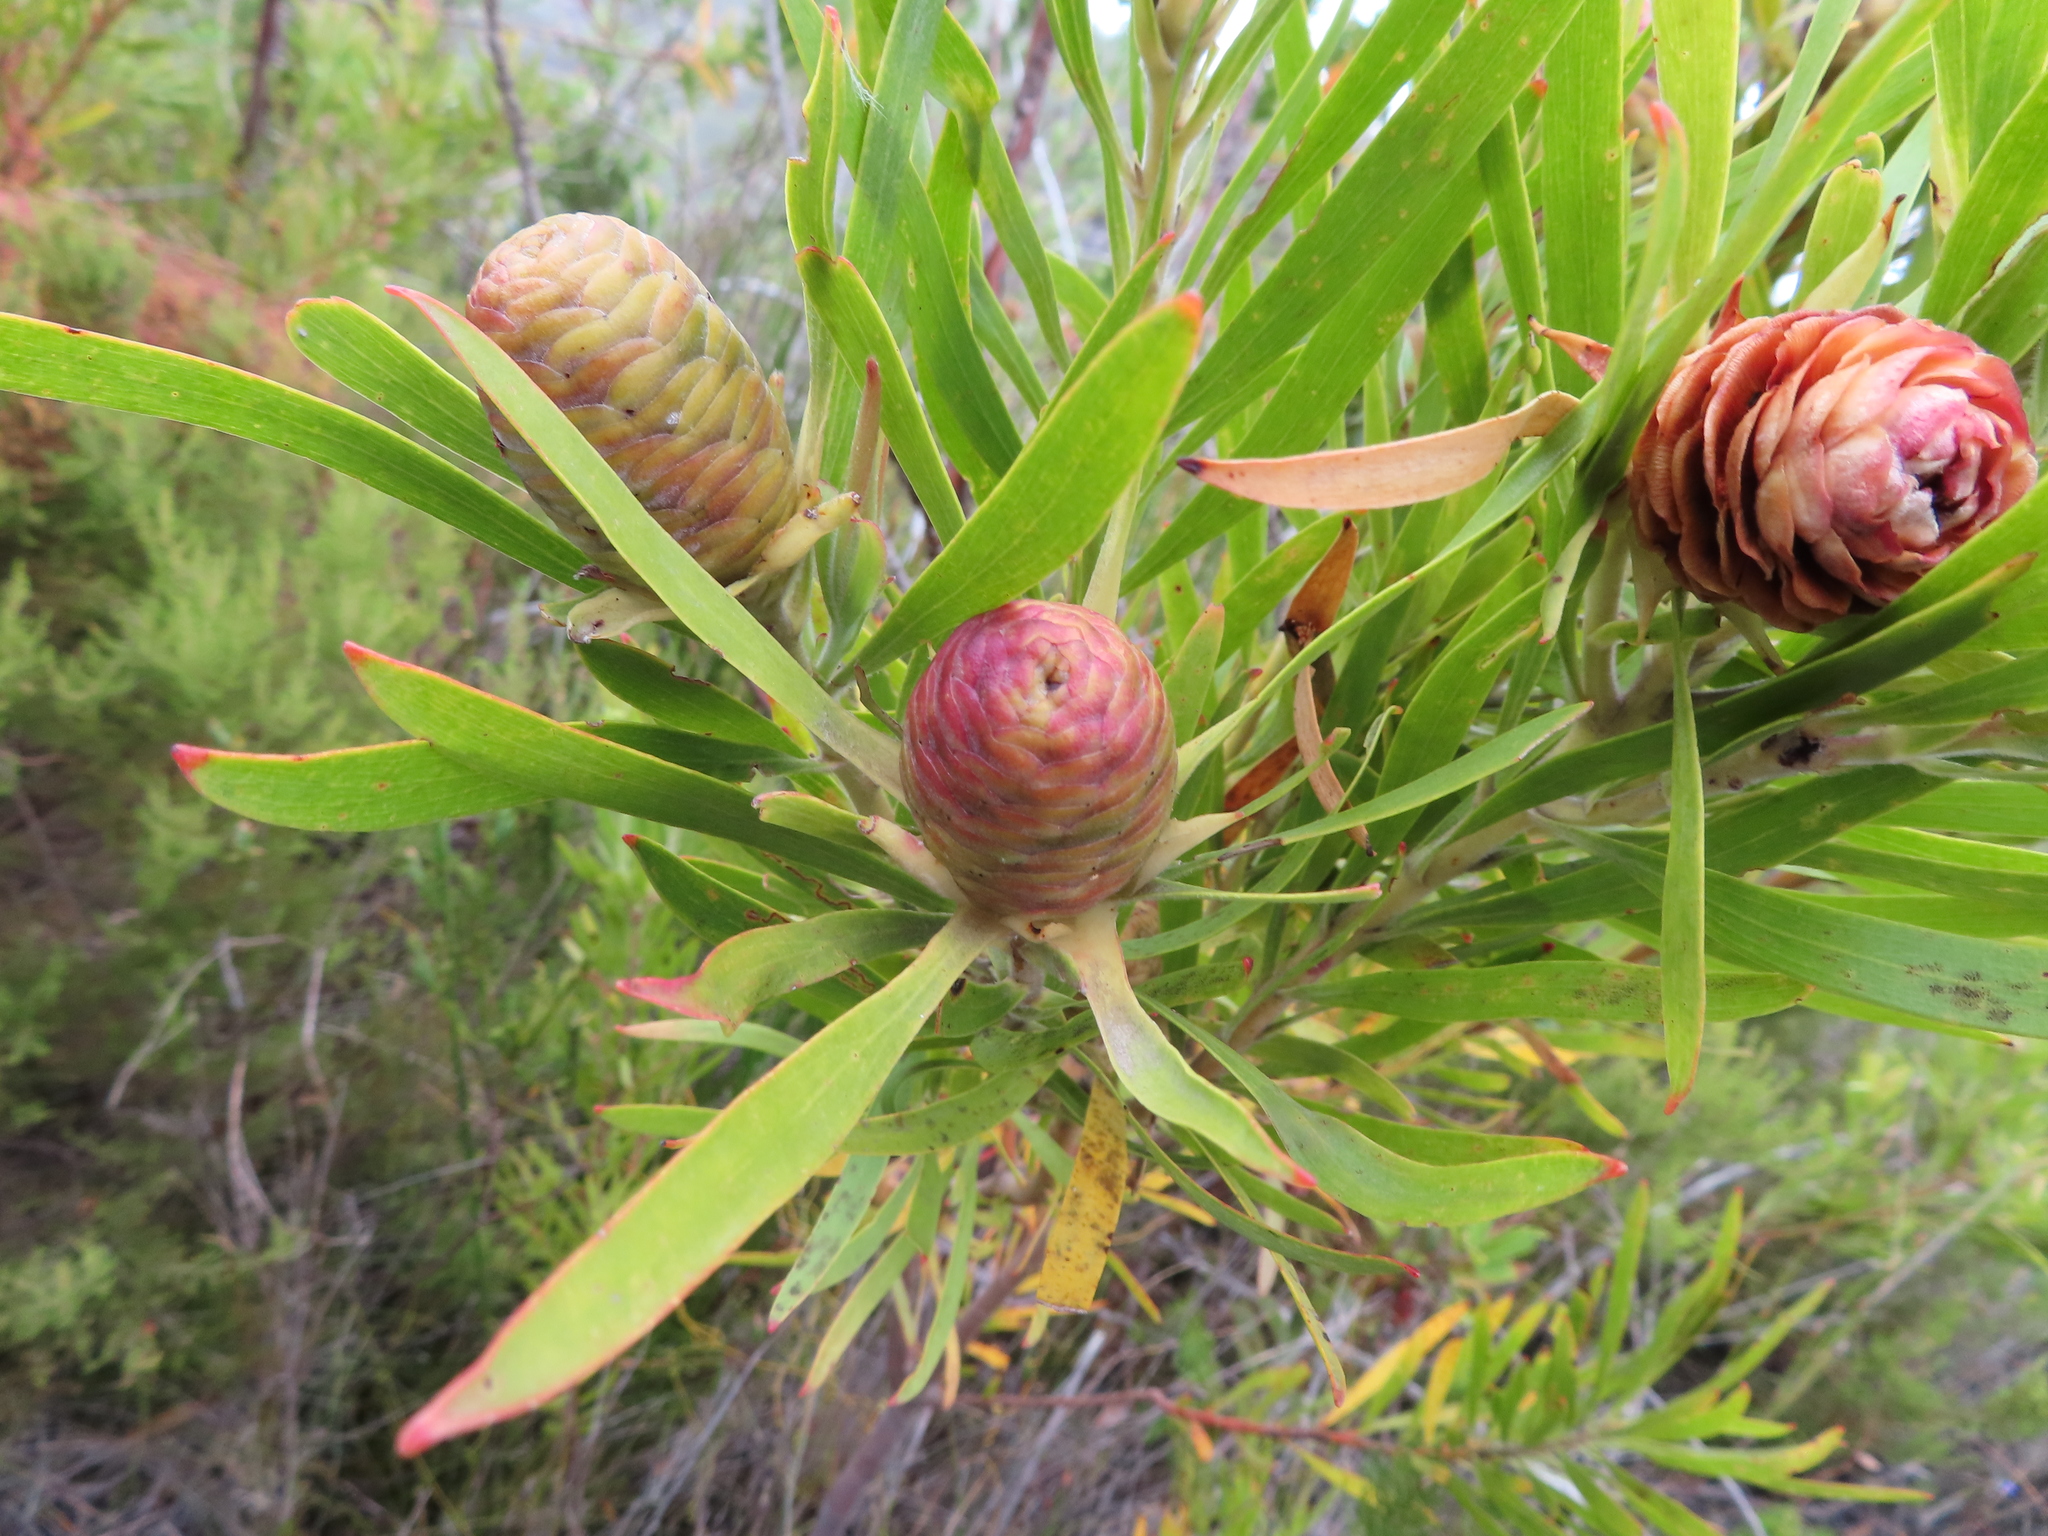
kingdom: Plantae
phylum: Tracheophyta
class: Magnoliopsida
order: Proteales
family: Proteaceae
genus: Leucadendron
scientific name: Leucadendron eucalyptifolium
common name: Gum-leaved conebush
